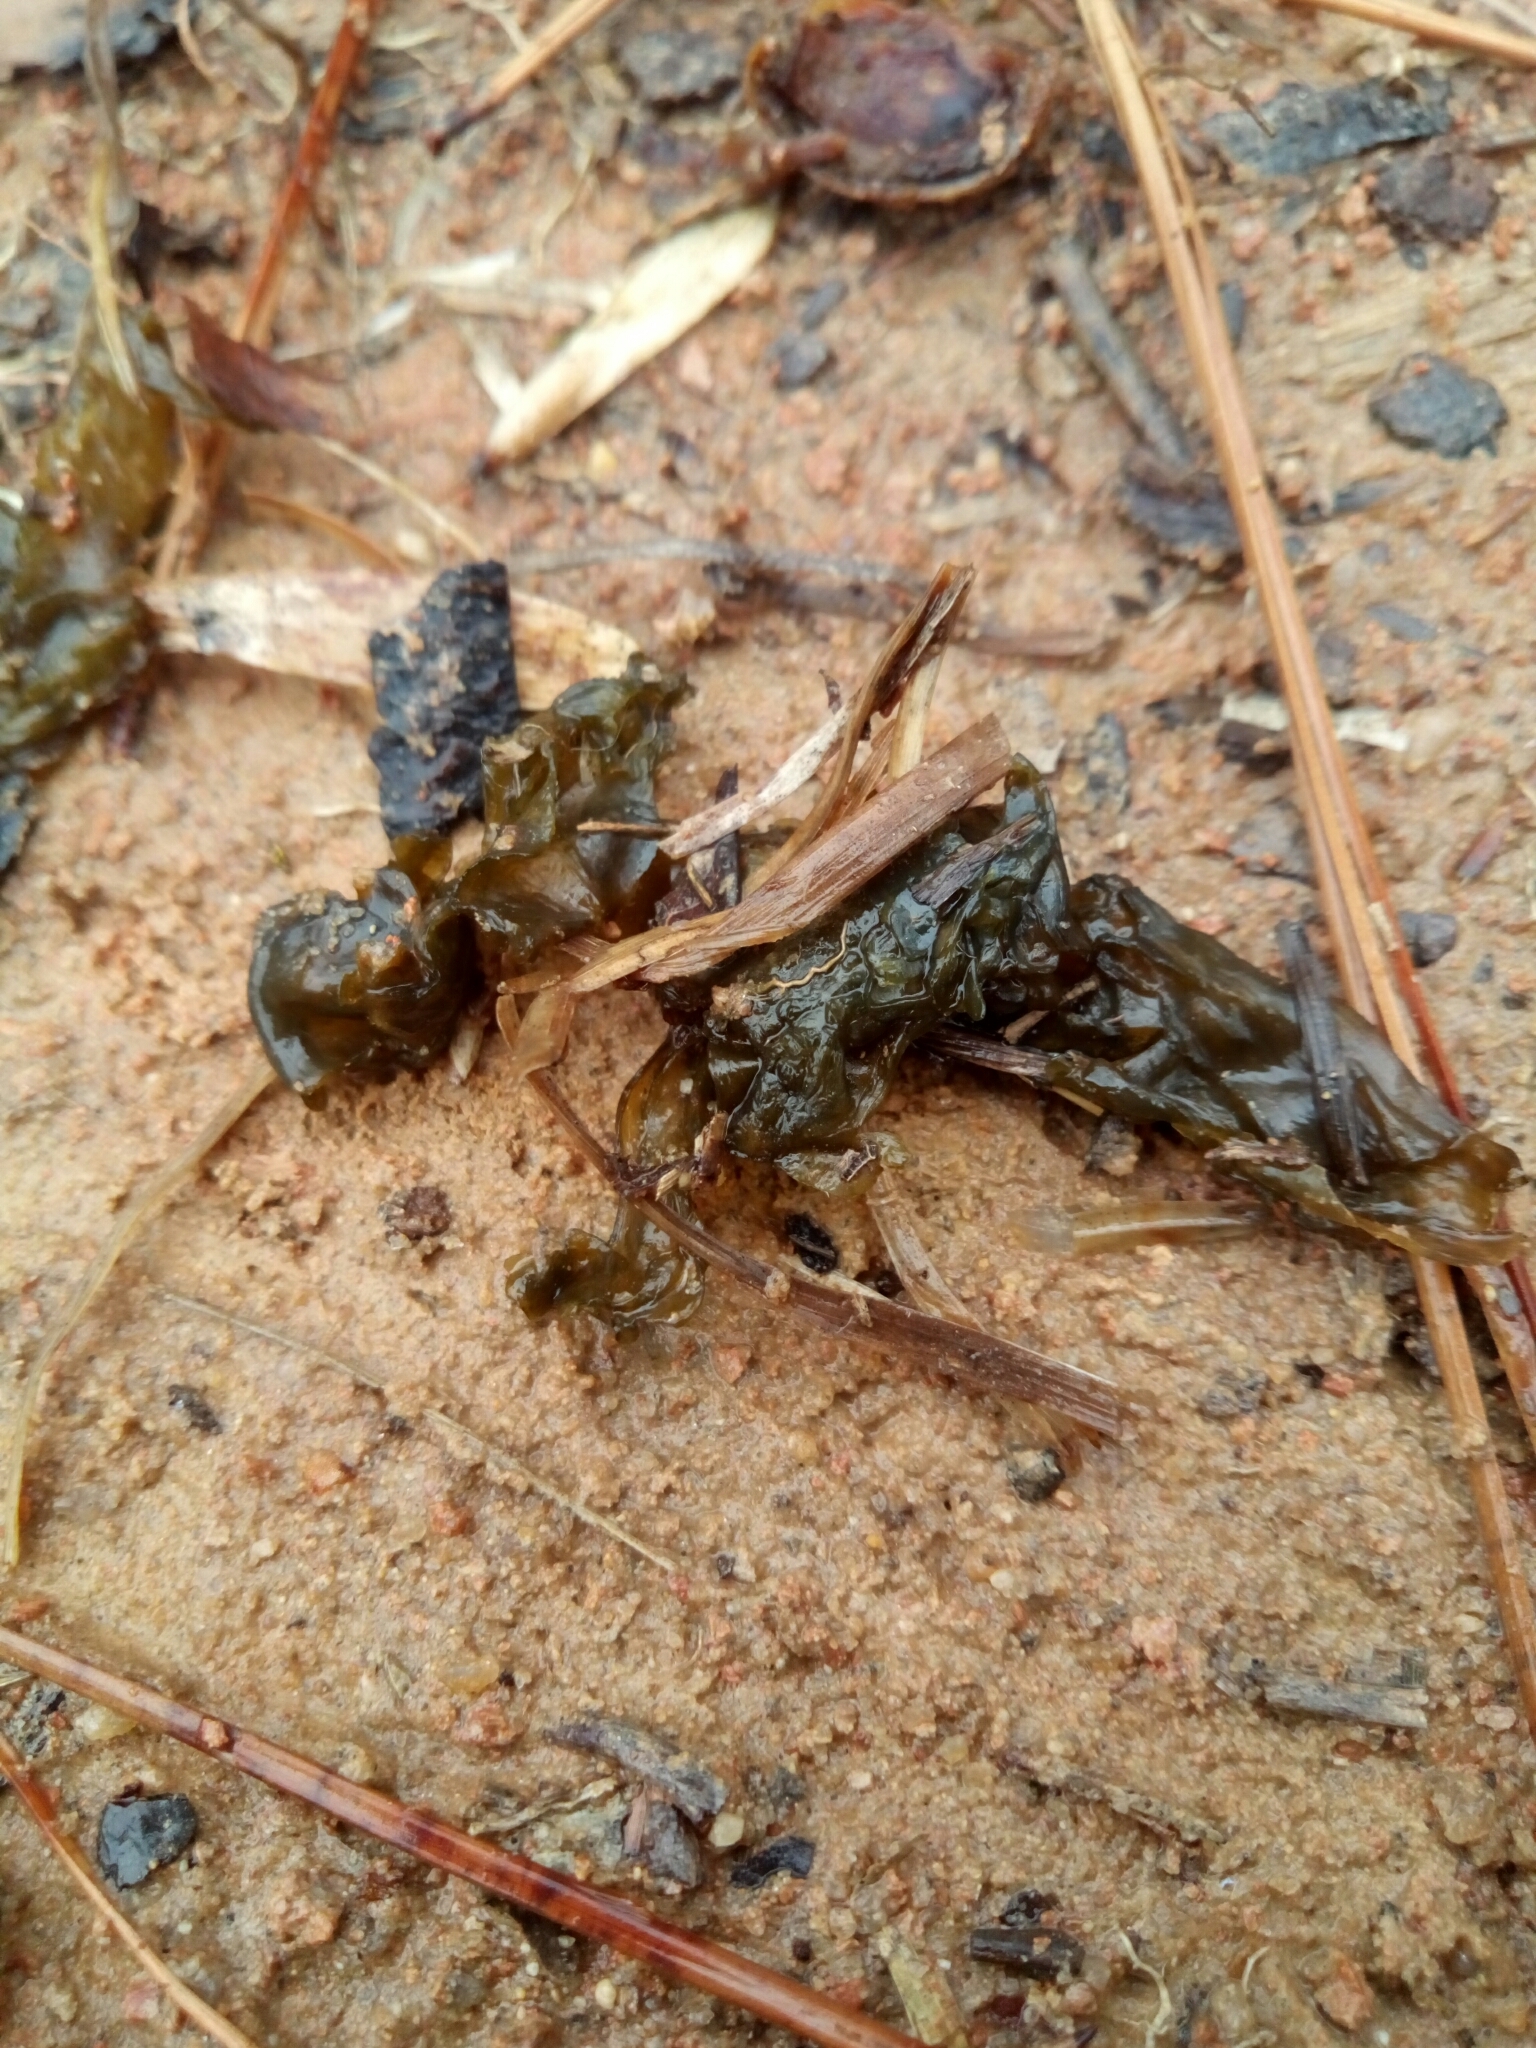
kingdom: Bacteria
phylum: Cyanobacteria
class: Cyanobacteriia
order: Cyanobacteriales
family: Nostocaceae
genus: Nostoc
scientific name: Nostoc commune
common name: Star jelly
